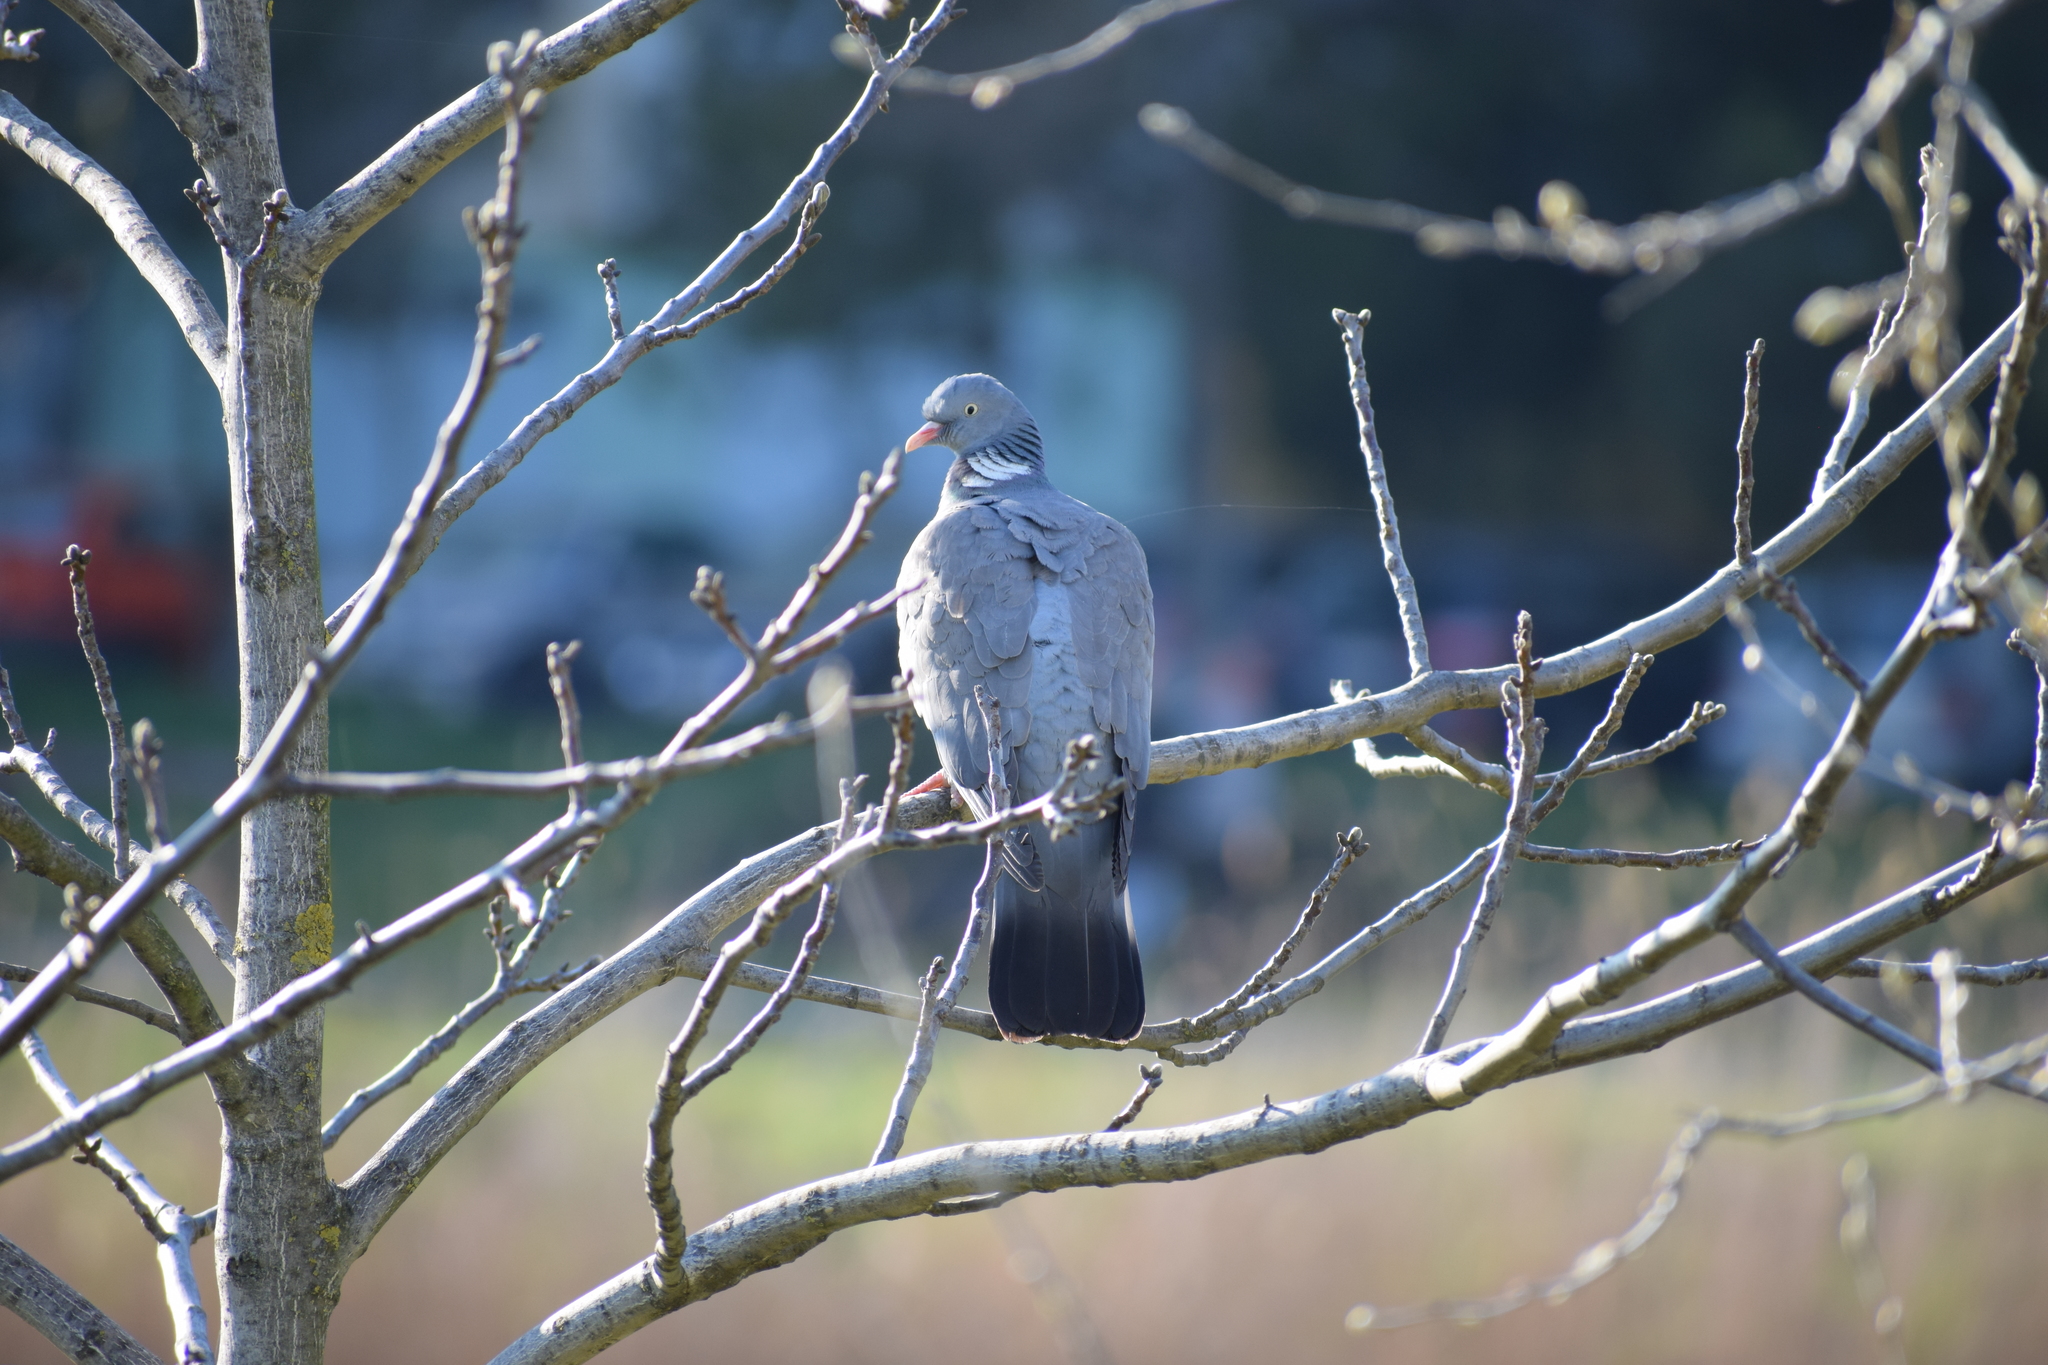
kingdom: Animalia
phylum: Chordata
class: Aves
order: Columbiformes
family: Columbidae
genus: Columba
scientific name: Columba palumbus
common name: Common wood pigeon
